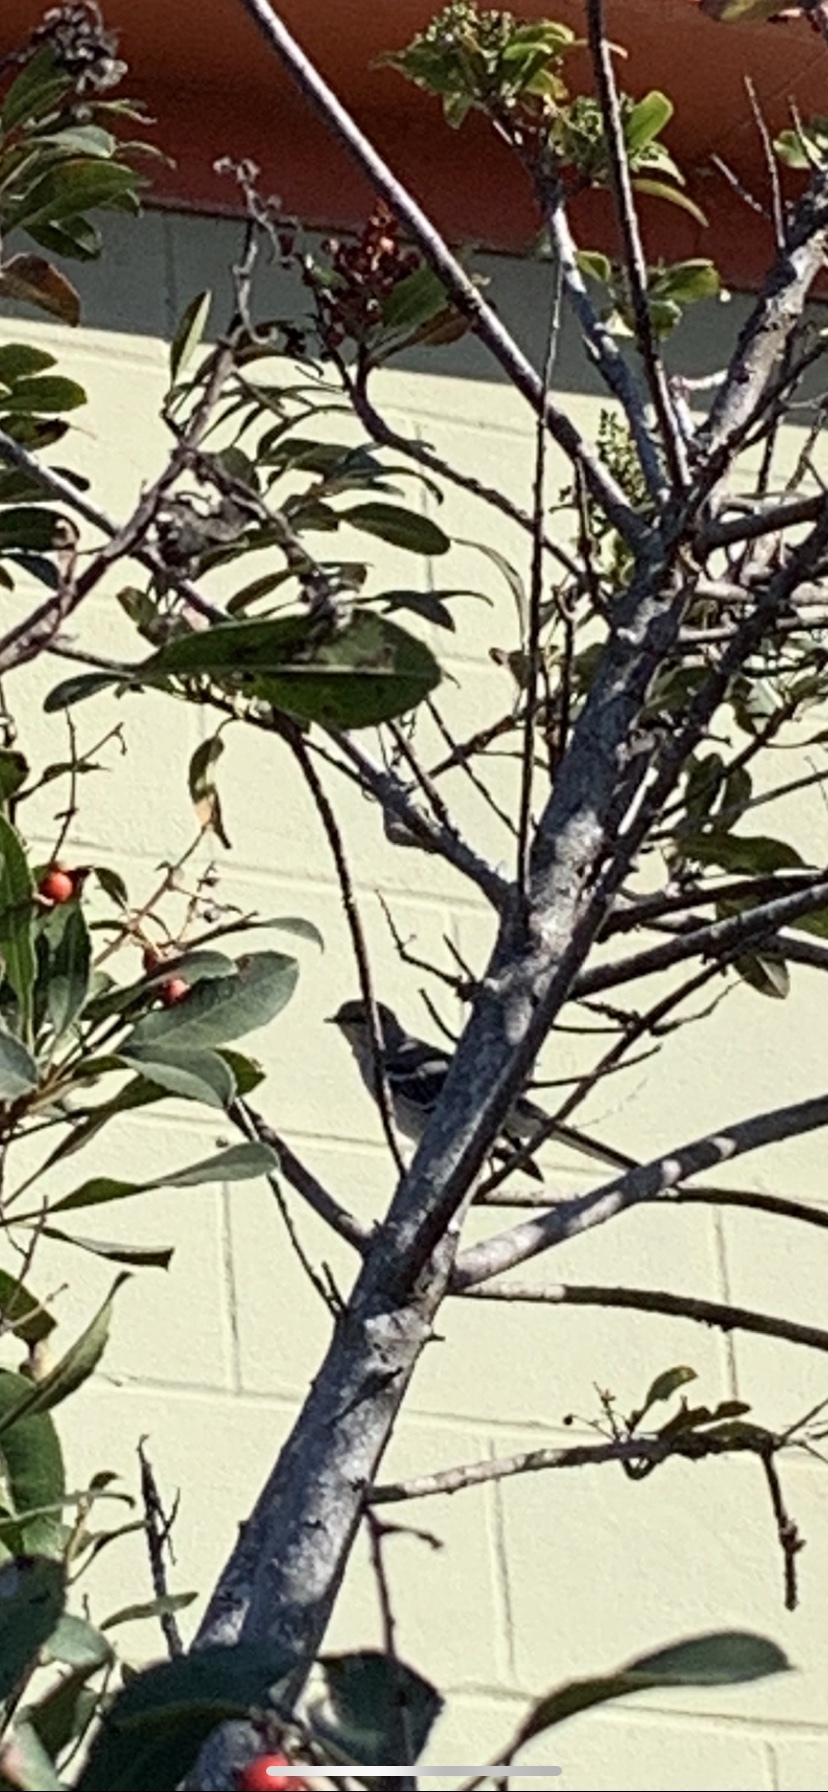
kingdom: Animalia
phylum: Chordata
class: Aves
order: Passeriformes
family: Mimidae
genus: Mimus
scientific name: Mimus polyglottos
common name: Northern mockingbird
